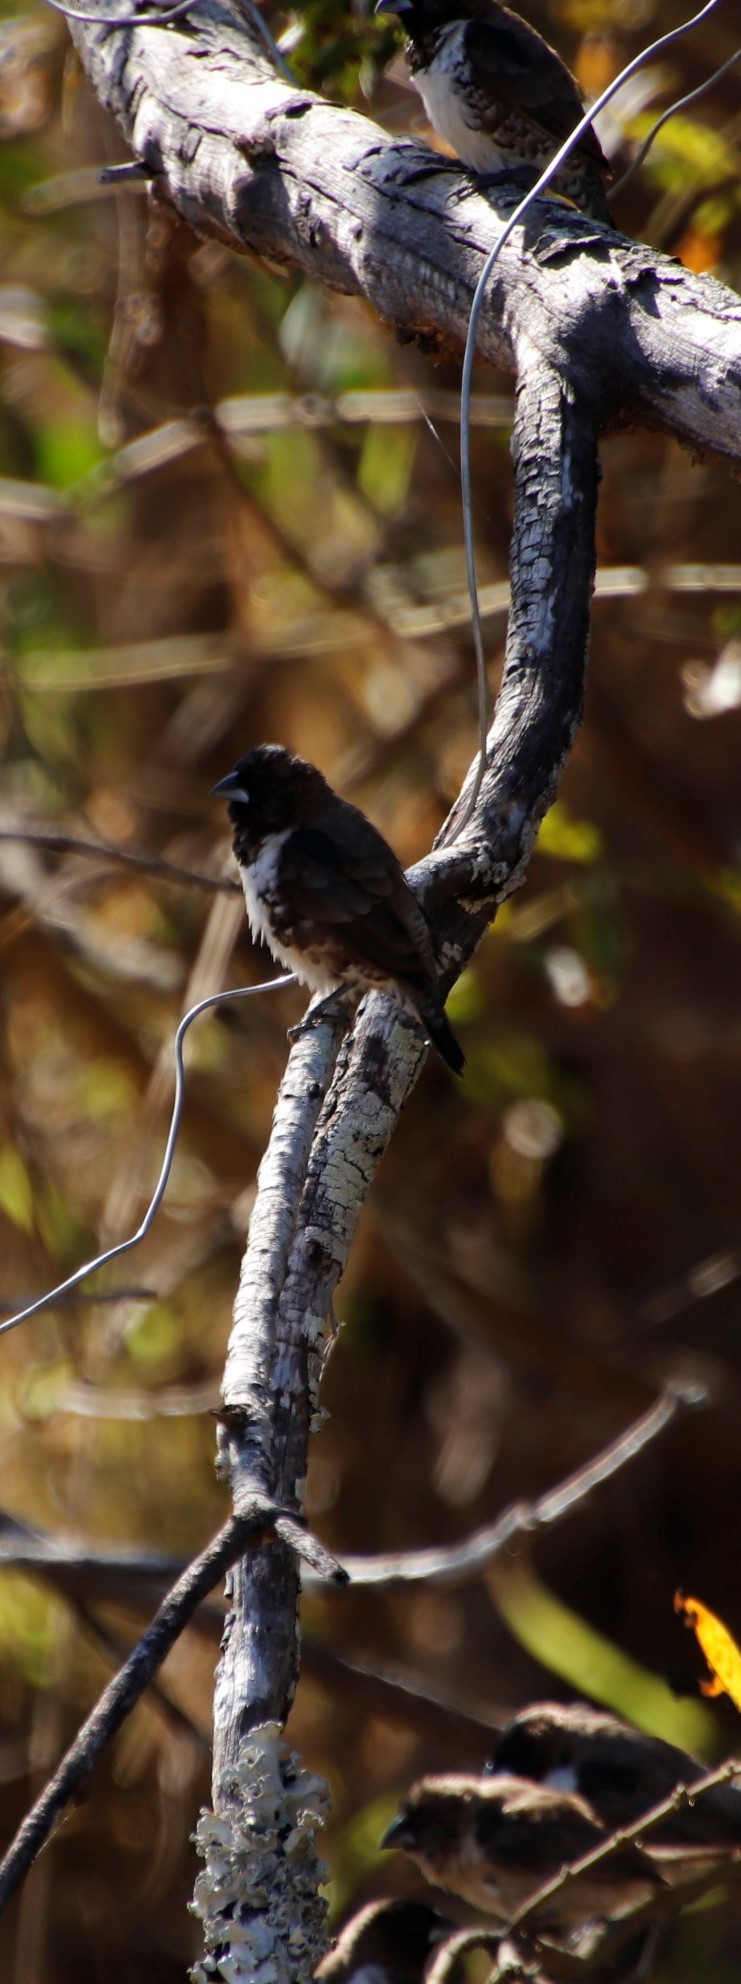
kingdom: Animalia
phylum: Chordata
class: Aves
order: Passeriformes
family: Estrildidae
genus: Lonchura
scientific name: Lonchura cucullata
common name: Bronze mannikin
